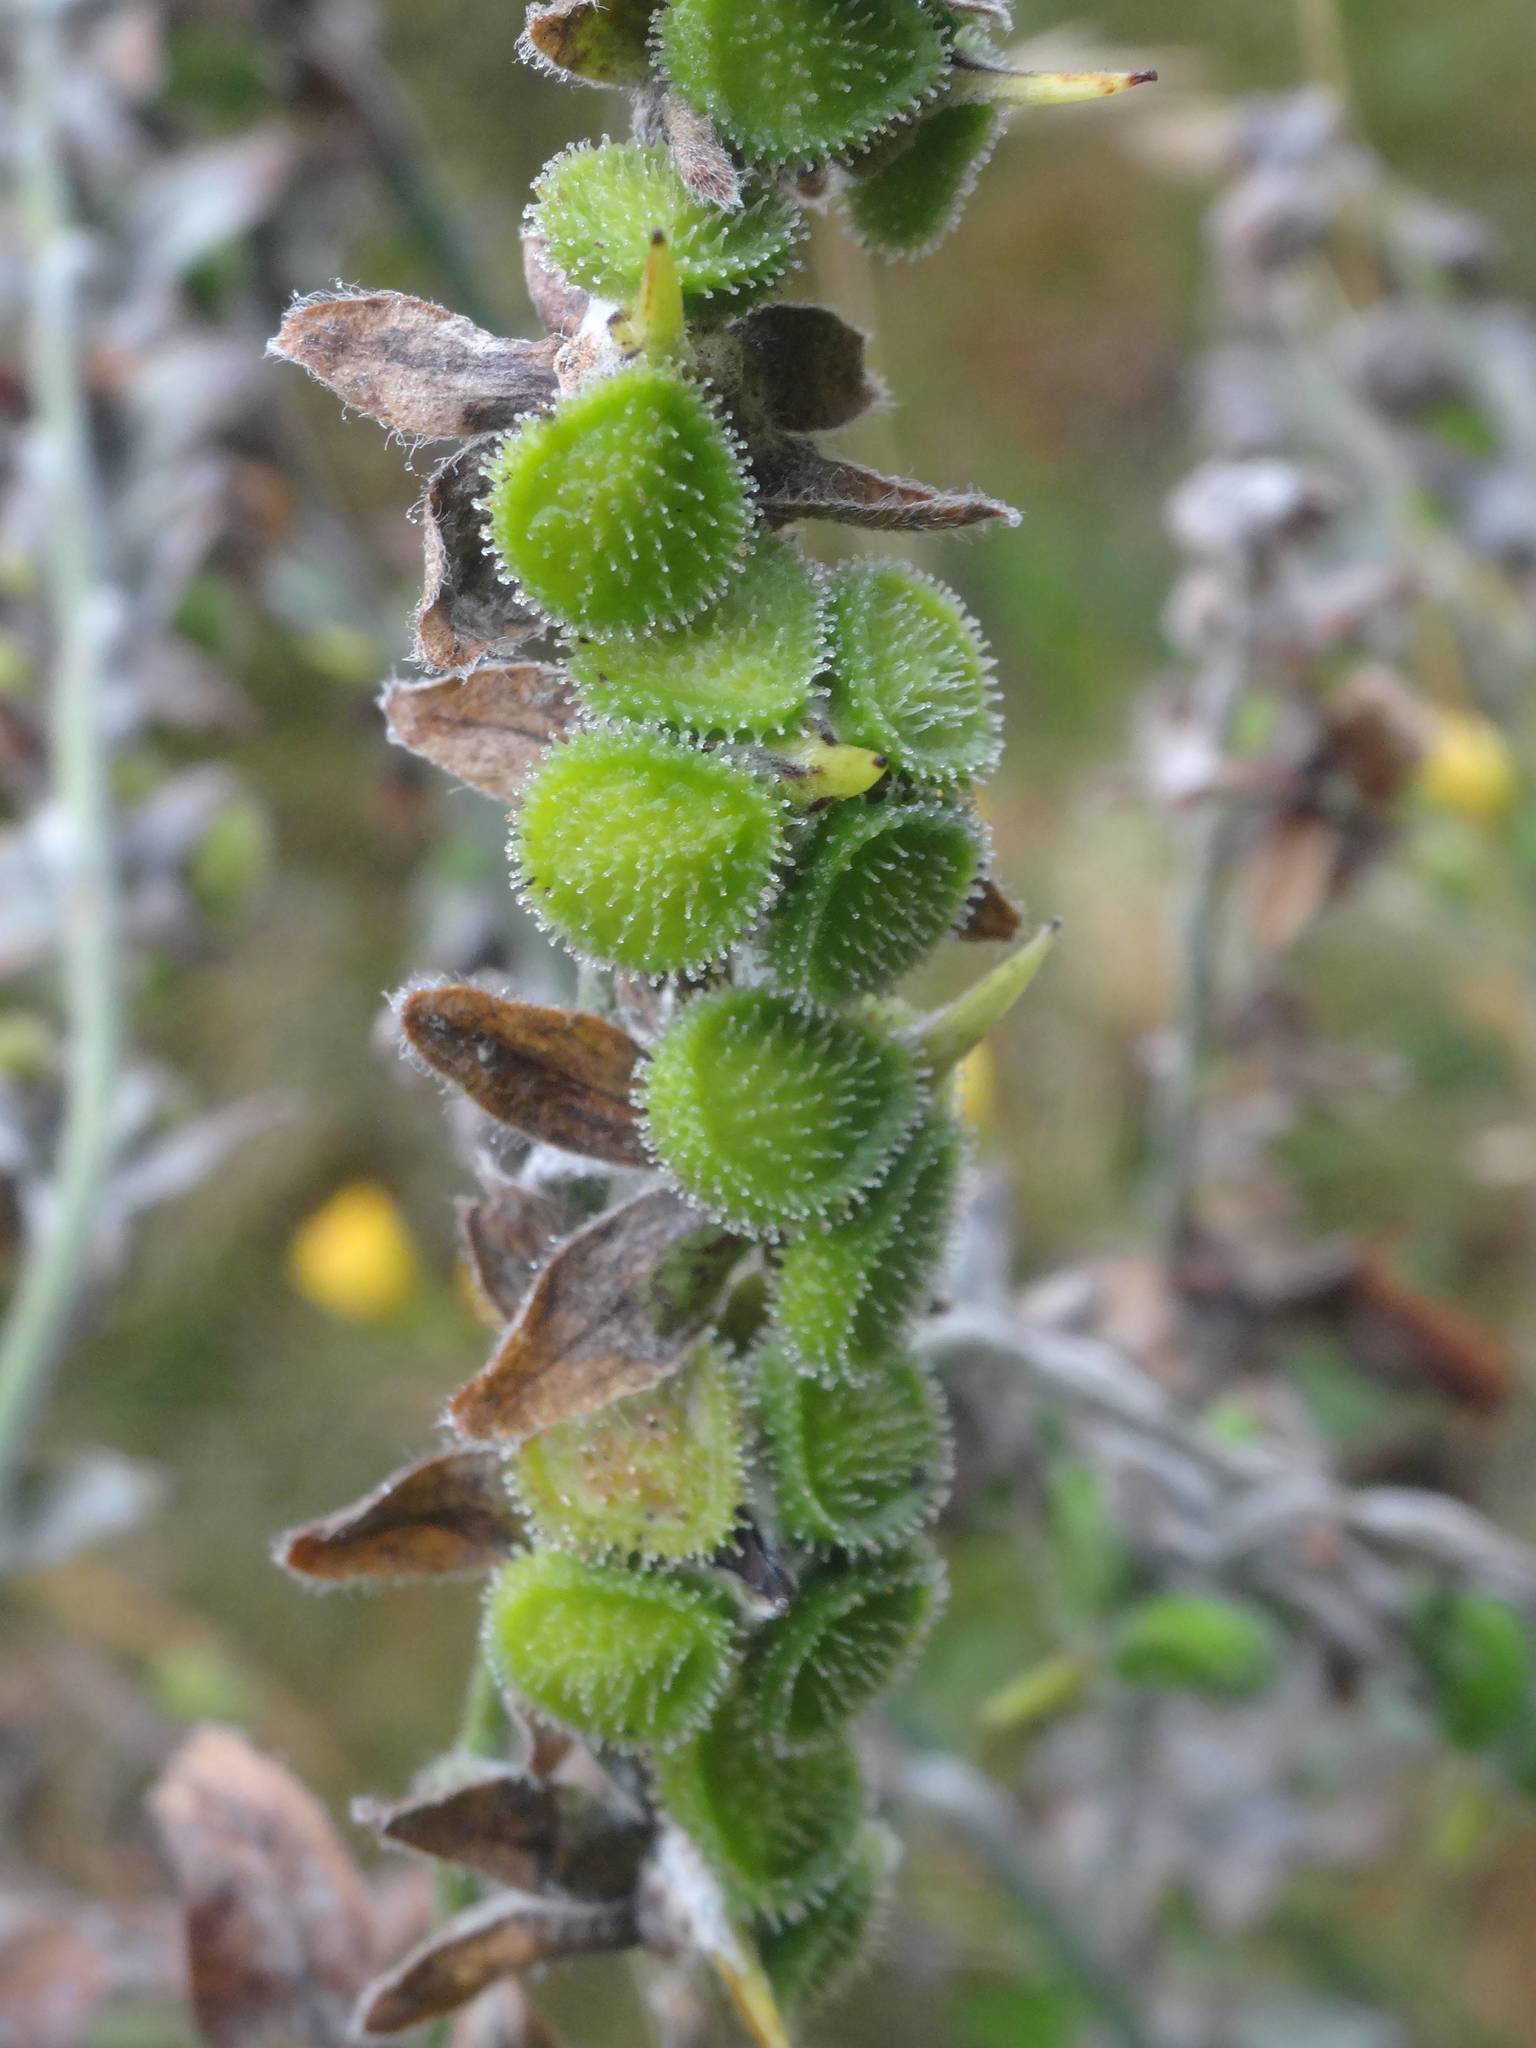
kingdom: Plantae
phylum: Tracheophyta
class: Magnoliopsida
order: Boraginales
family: Boraginaceae
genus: Cynoglossum
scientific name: Cynoglossum officinale
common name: Hound's-tongue
